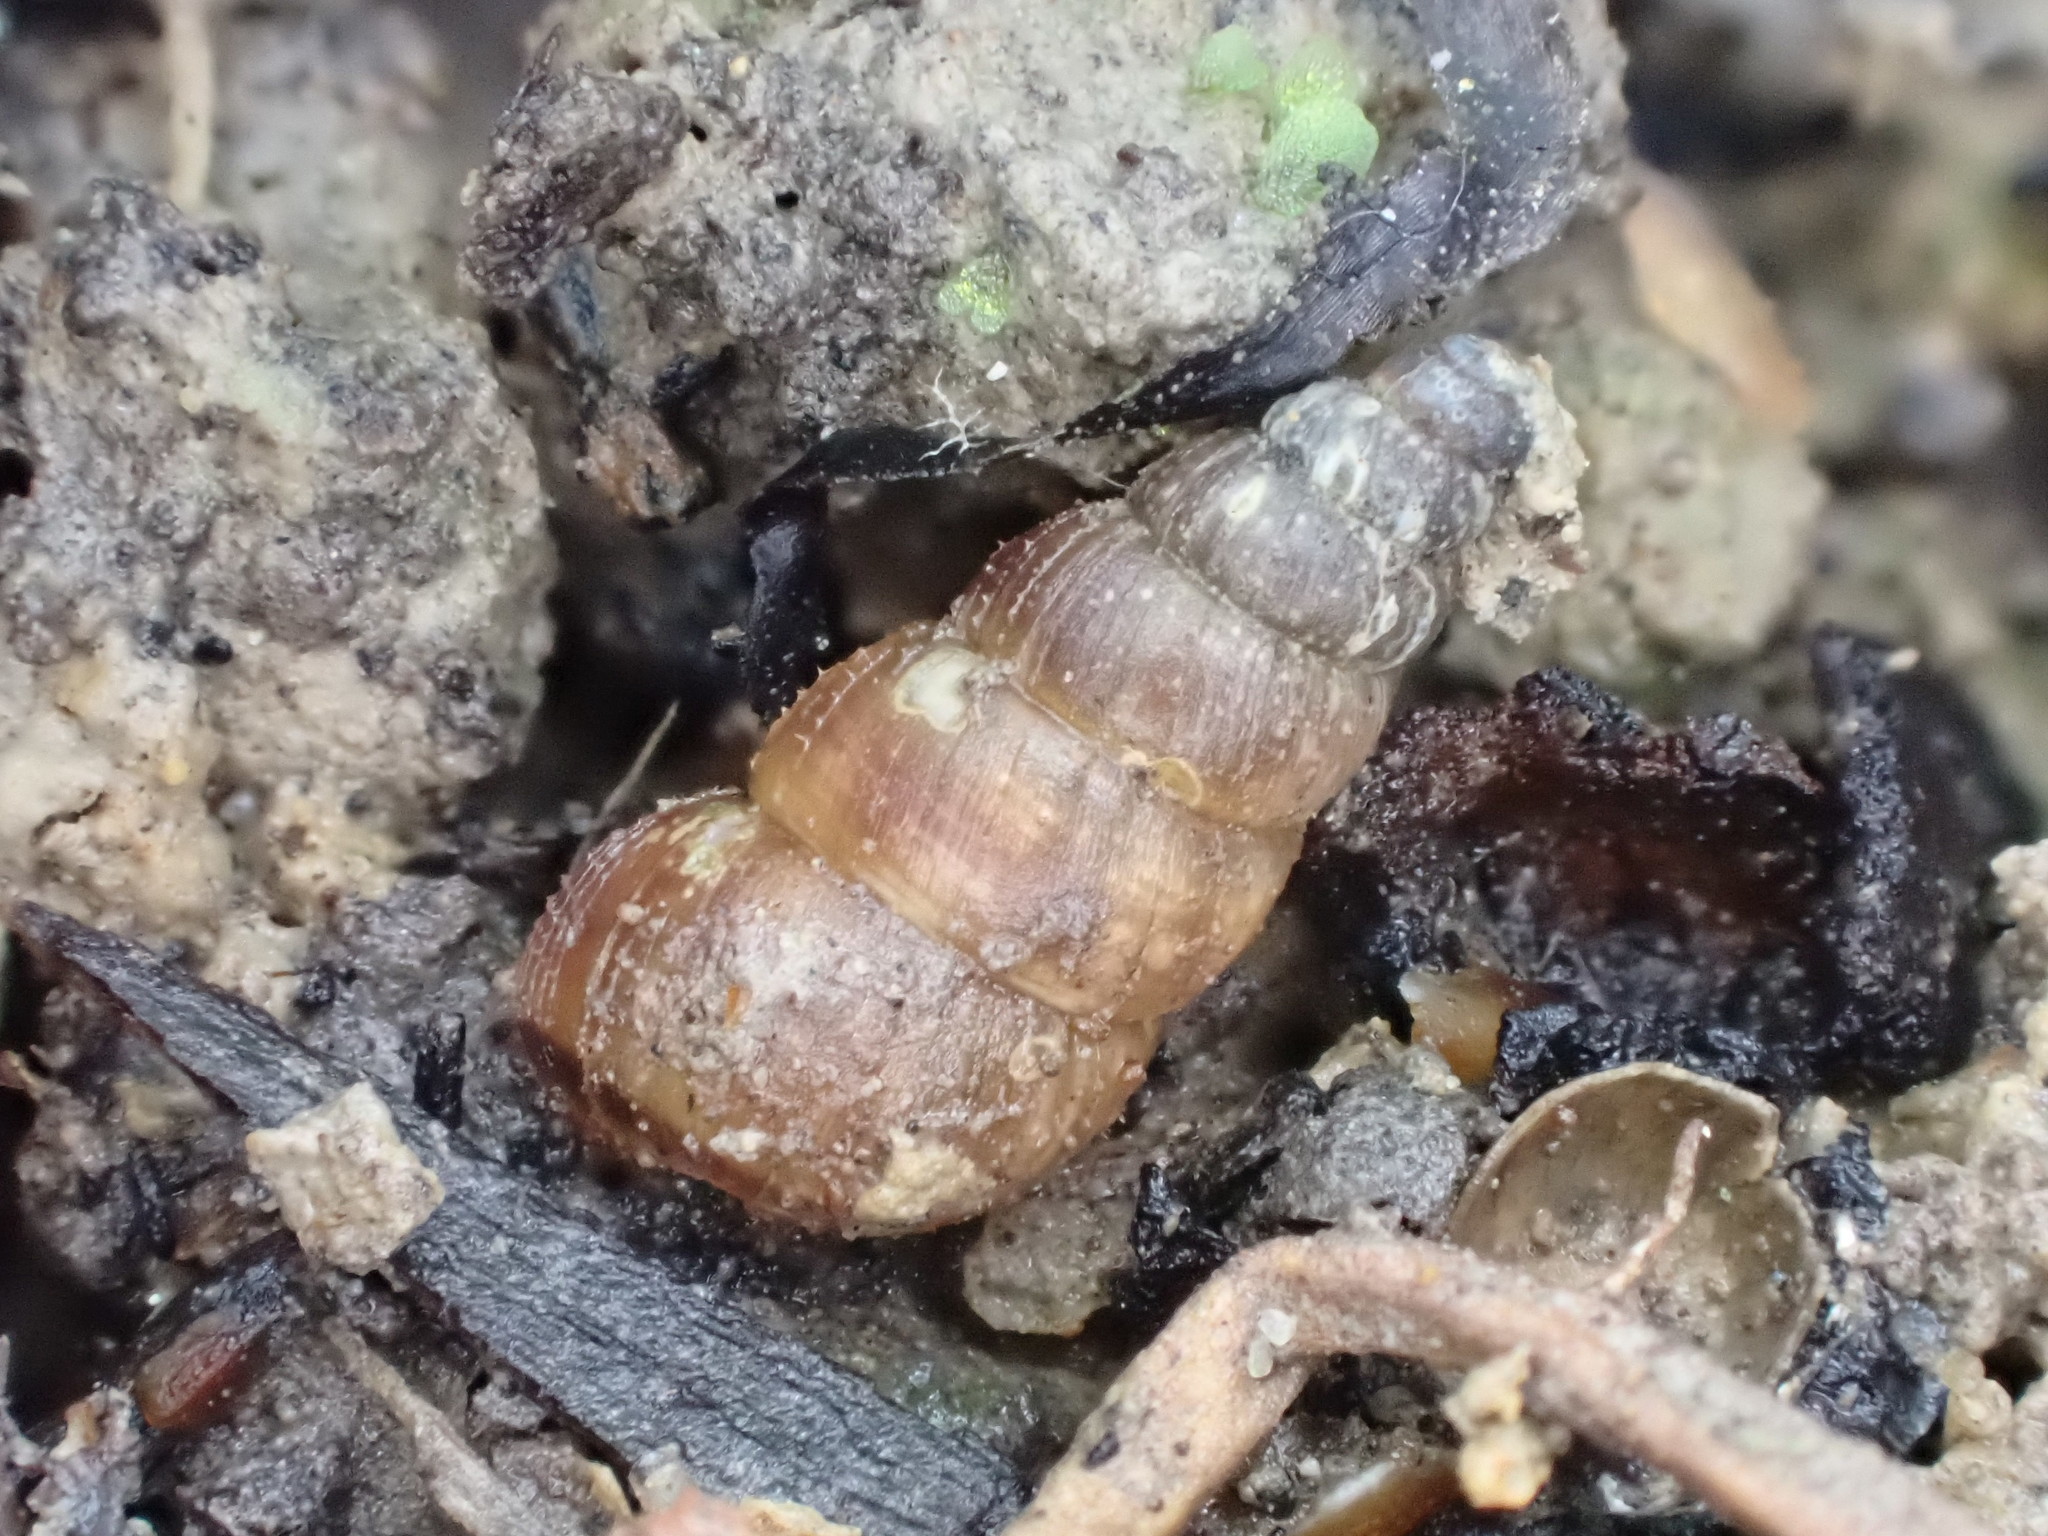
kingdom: Animalia
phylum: Mollusca
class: Gastropoda
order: Architaenioglossa
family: Pupinidae
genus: Liarea
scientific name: Liarea turriculata
